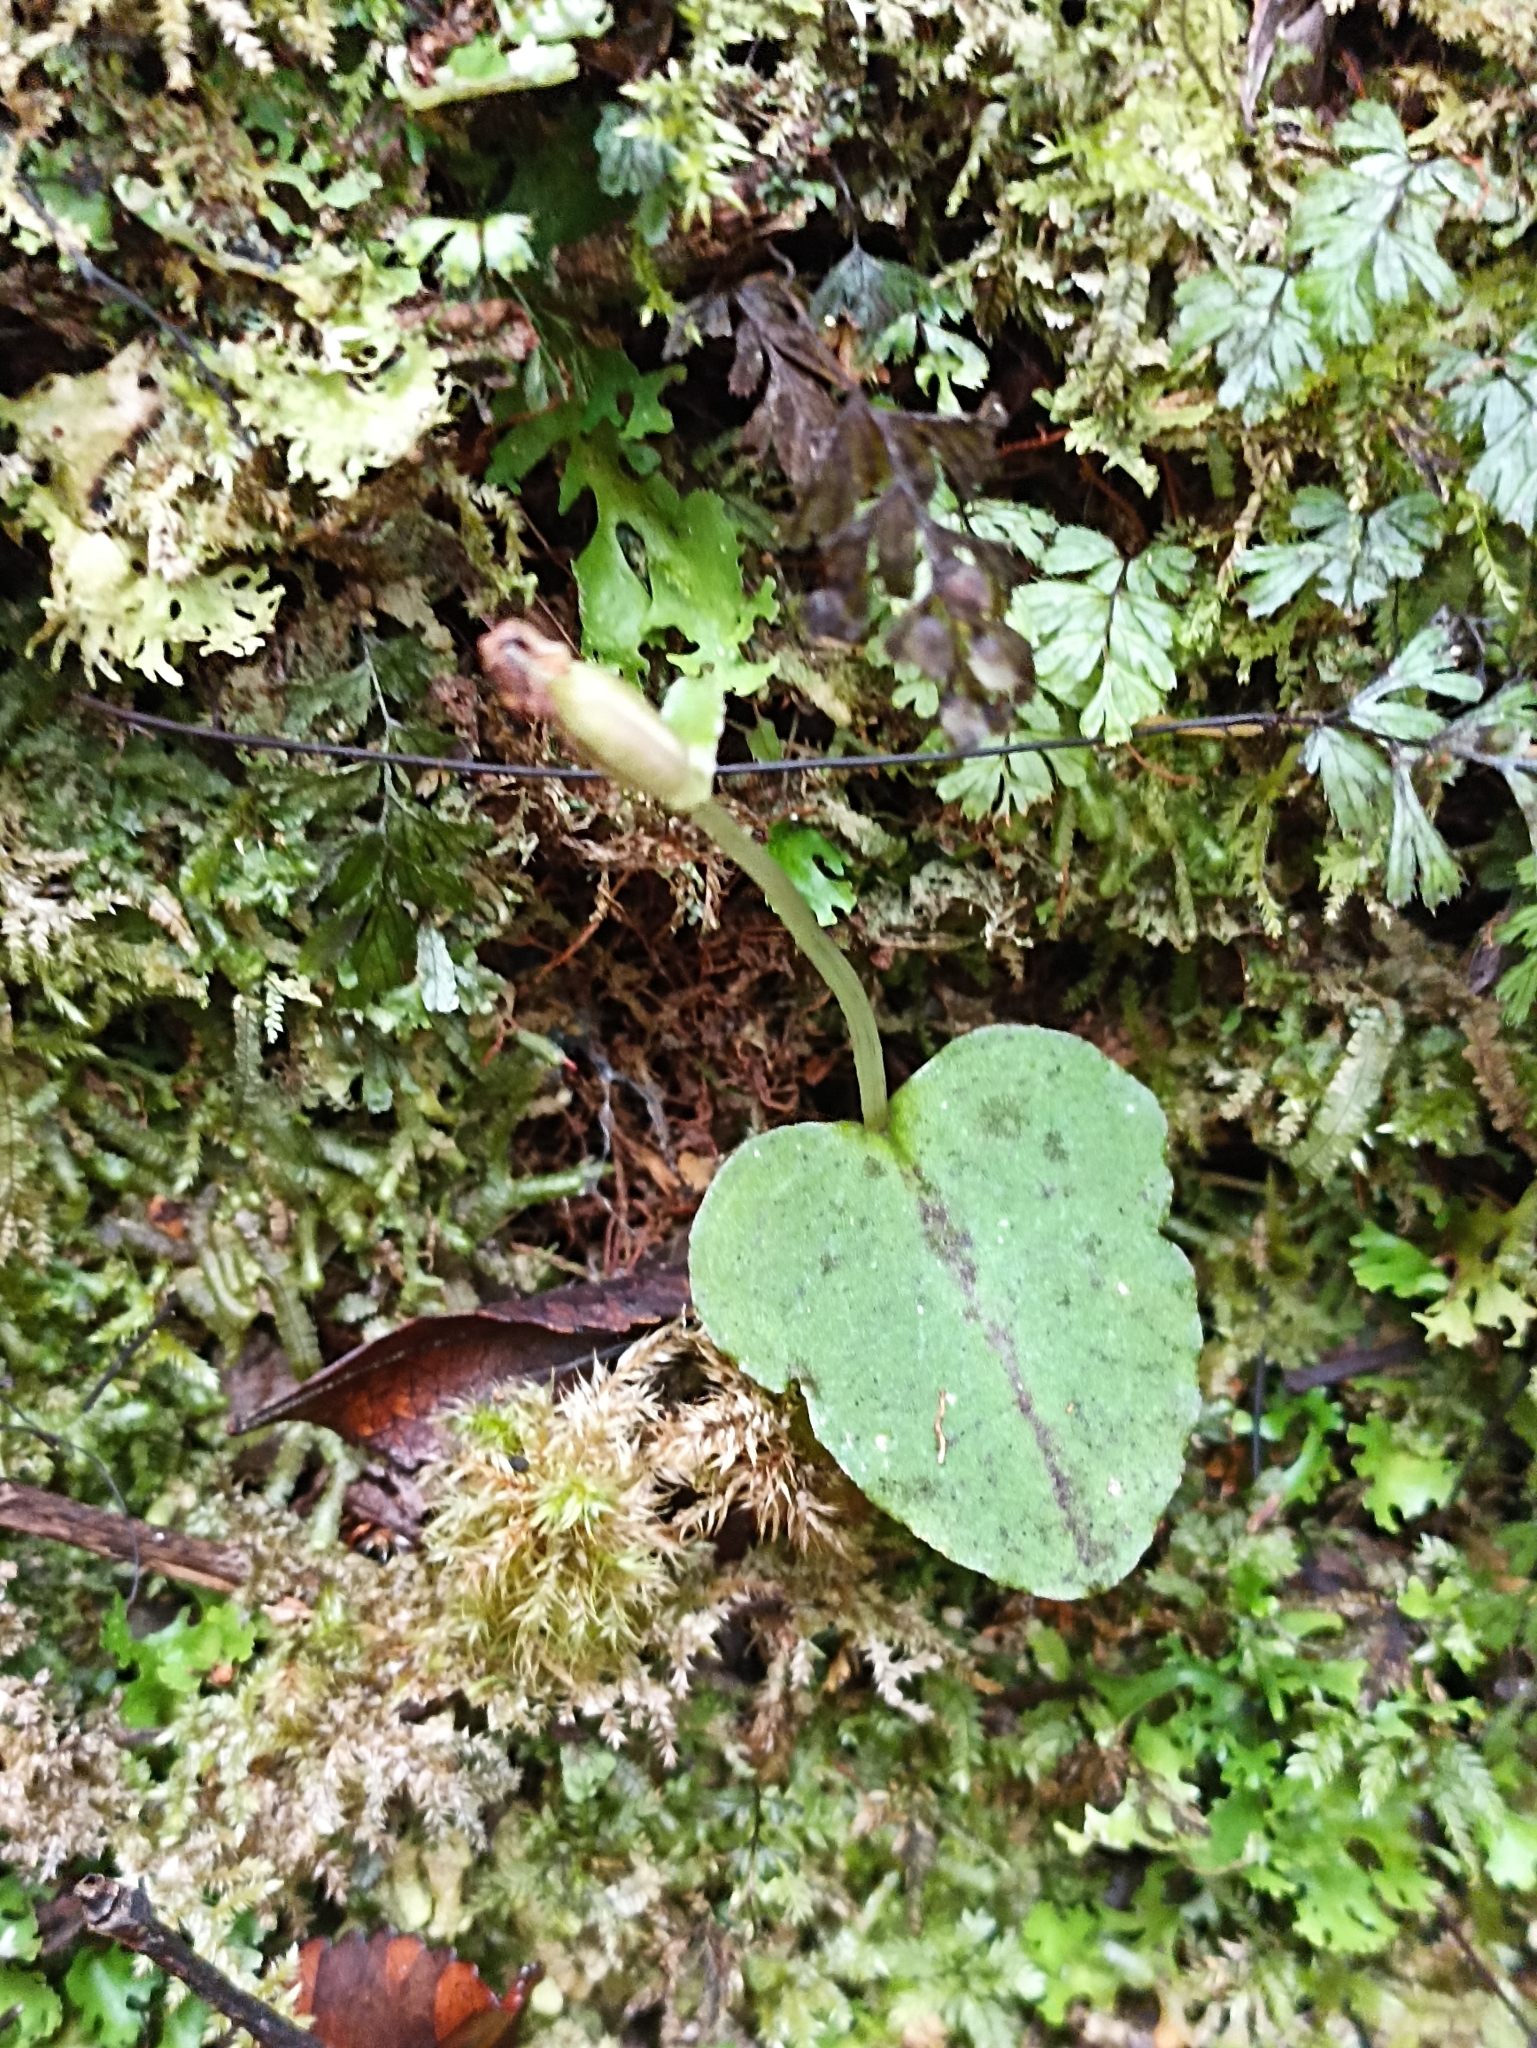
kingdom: Plantae
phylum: Tracheophyta
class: Liliopsida
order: Asparagales
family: Orchidaceae
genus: Corybas
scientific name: Corybas oblongus
